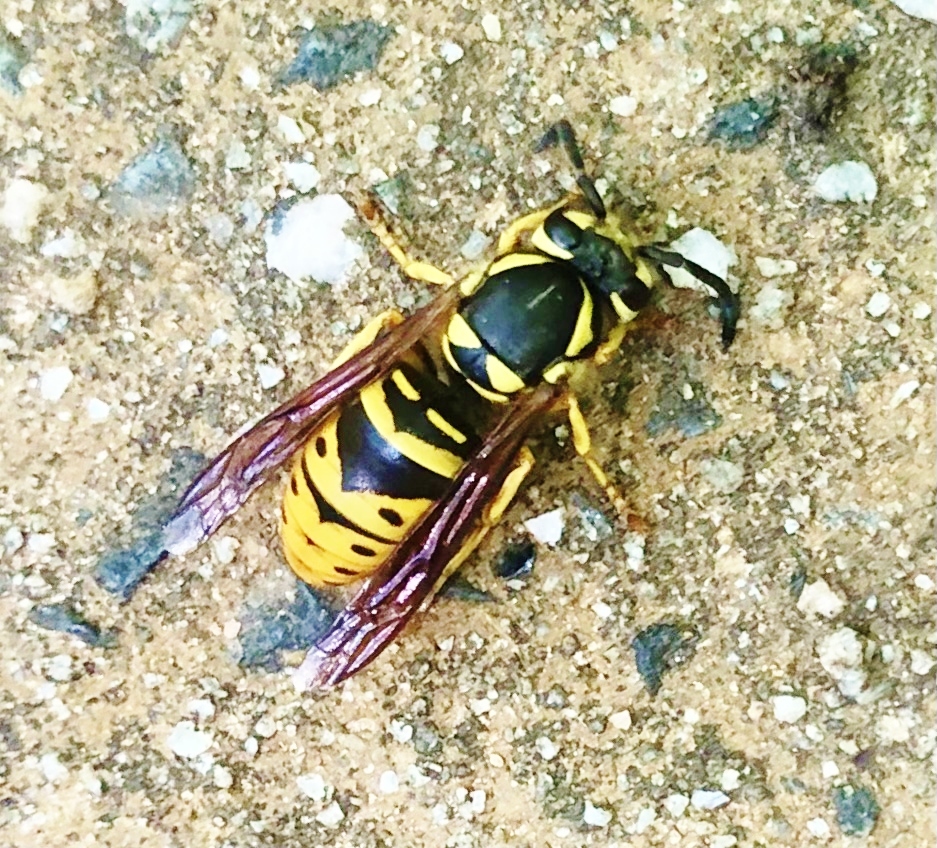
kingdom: Animalia
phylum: Arthropoda
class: Insecta
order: Hymenoptera
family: Vespidae
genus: Vespula
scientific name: Vespula maculifrons
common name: Eastern yellowjacket
